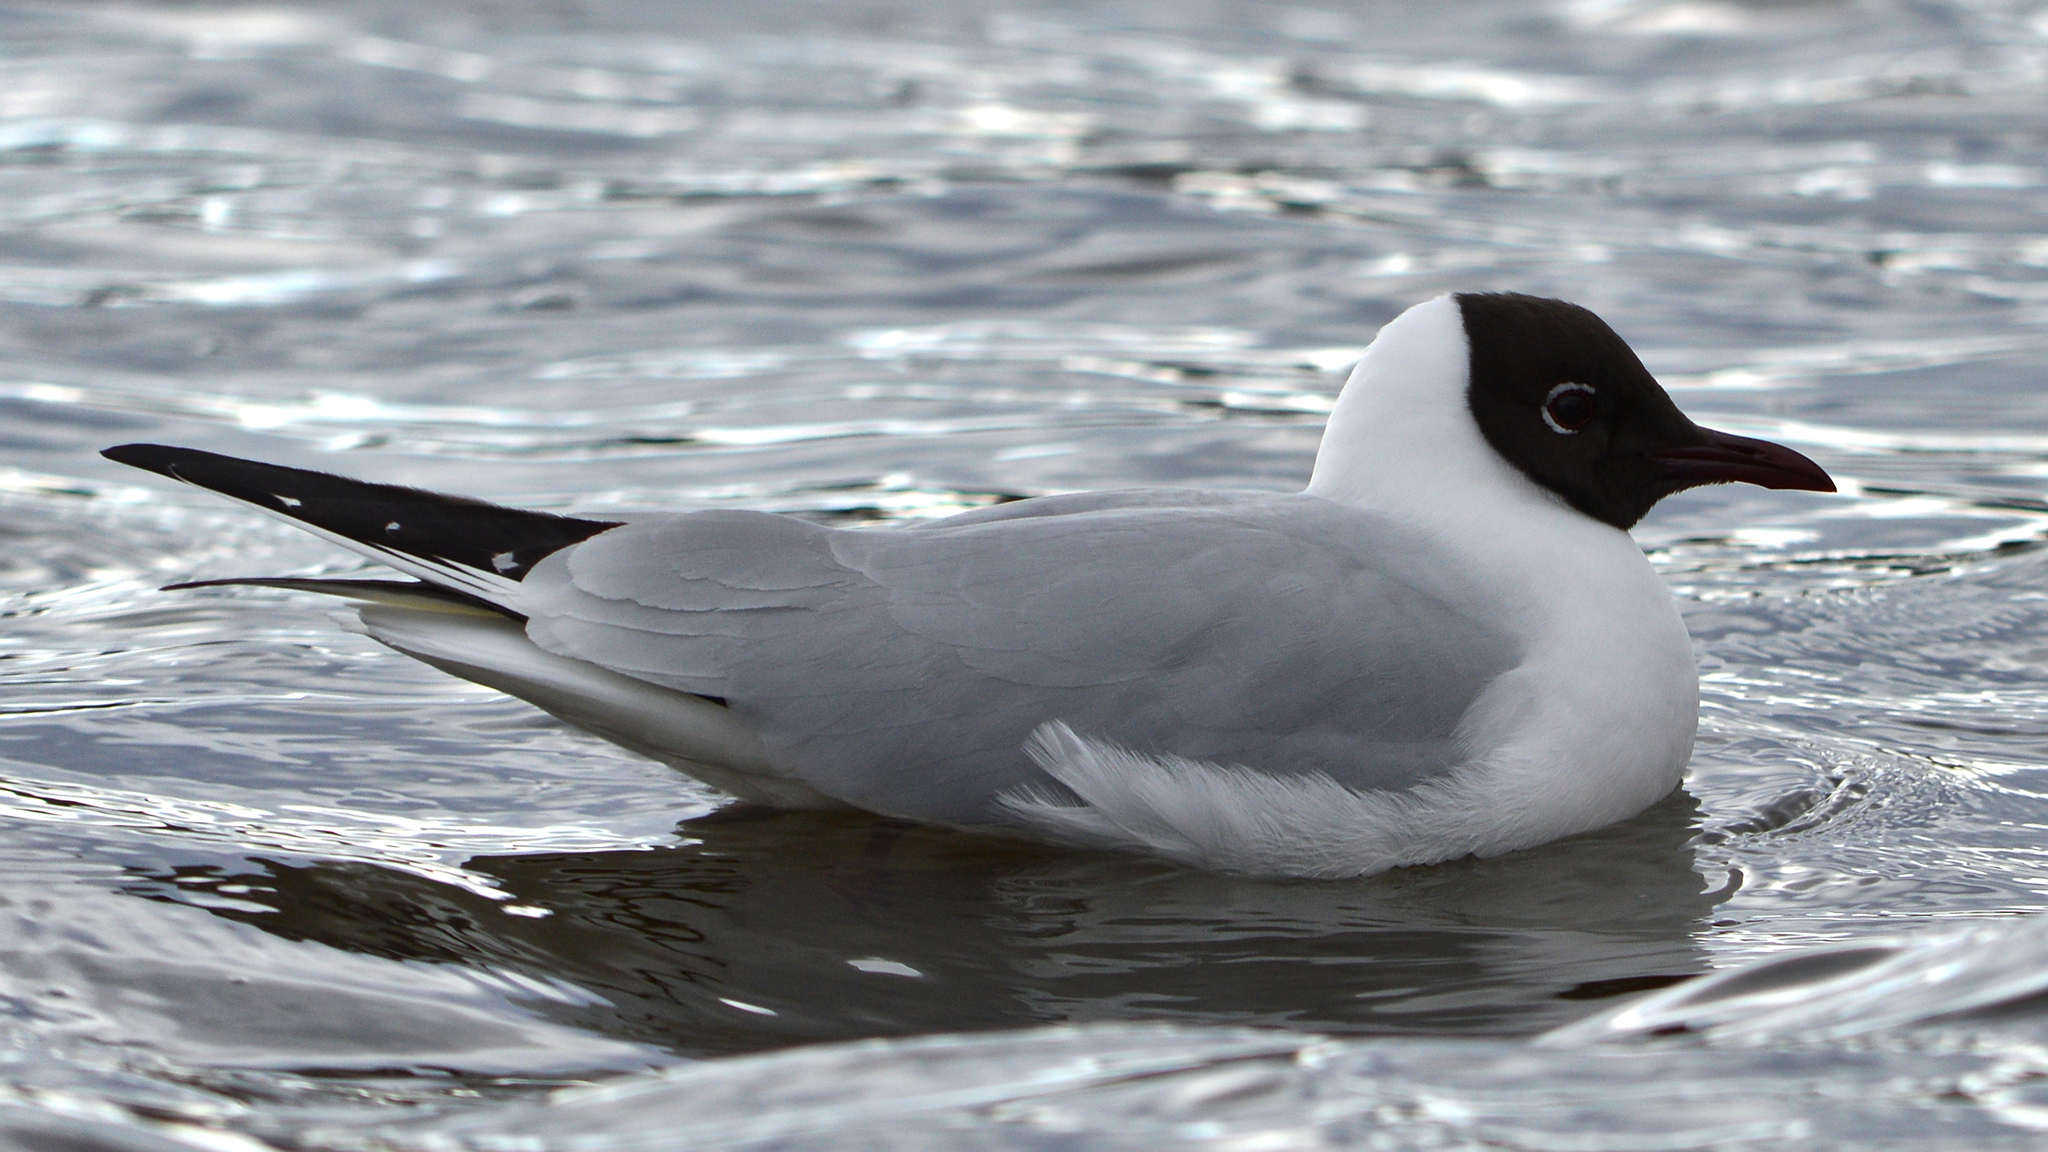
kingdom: Animalia
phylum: Chordata
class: Aves
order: Charadriiformes
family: Laridae
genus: Chroicocephalus
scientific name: Chroicocephalus ridibundus
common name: Black-headed gull
